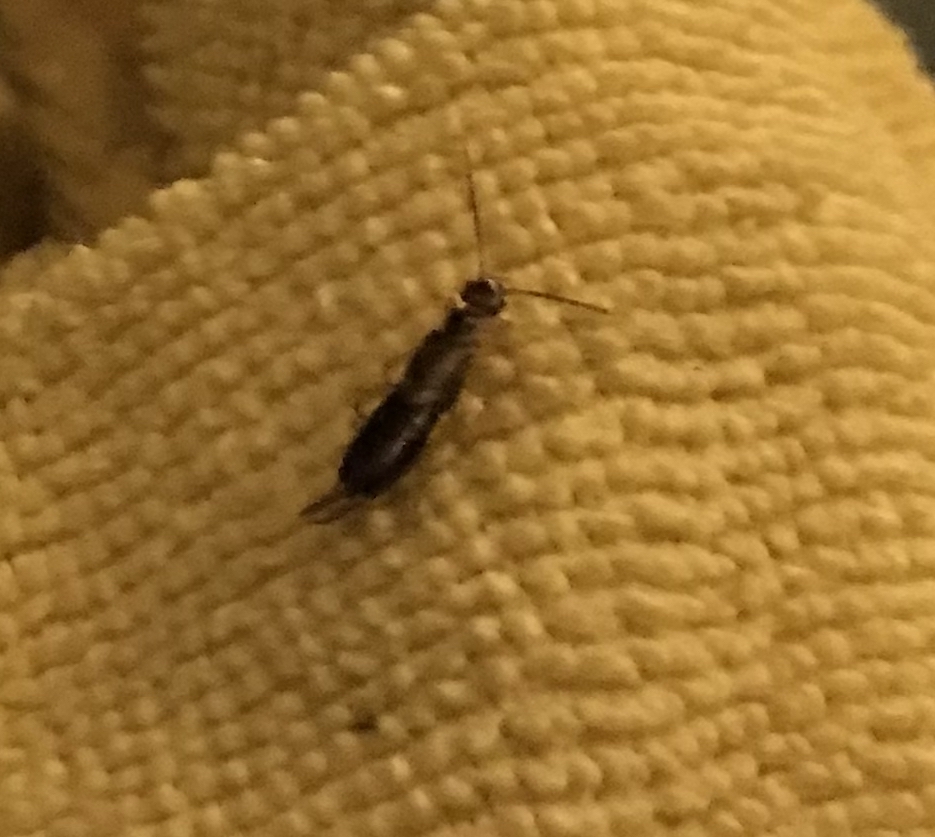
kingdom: Animalia
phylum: Arthropoda
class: Insecta
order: Dermaptera
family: Forficulidae
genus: Forficula
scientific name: Forficula
